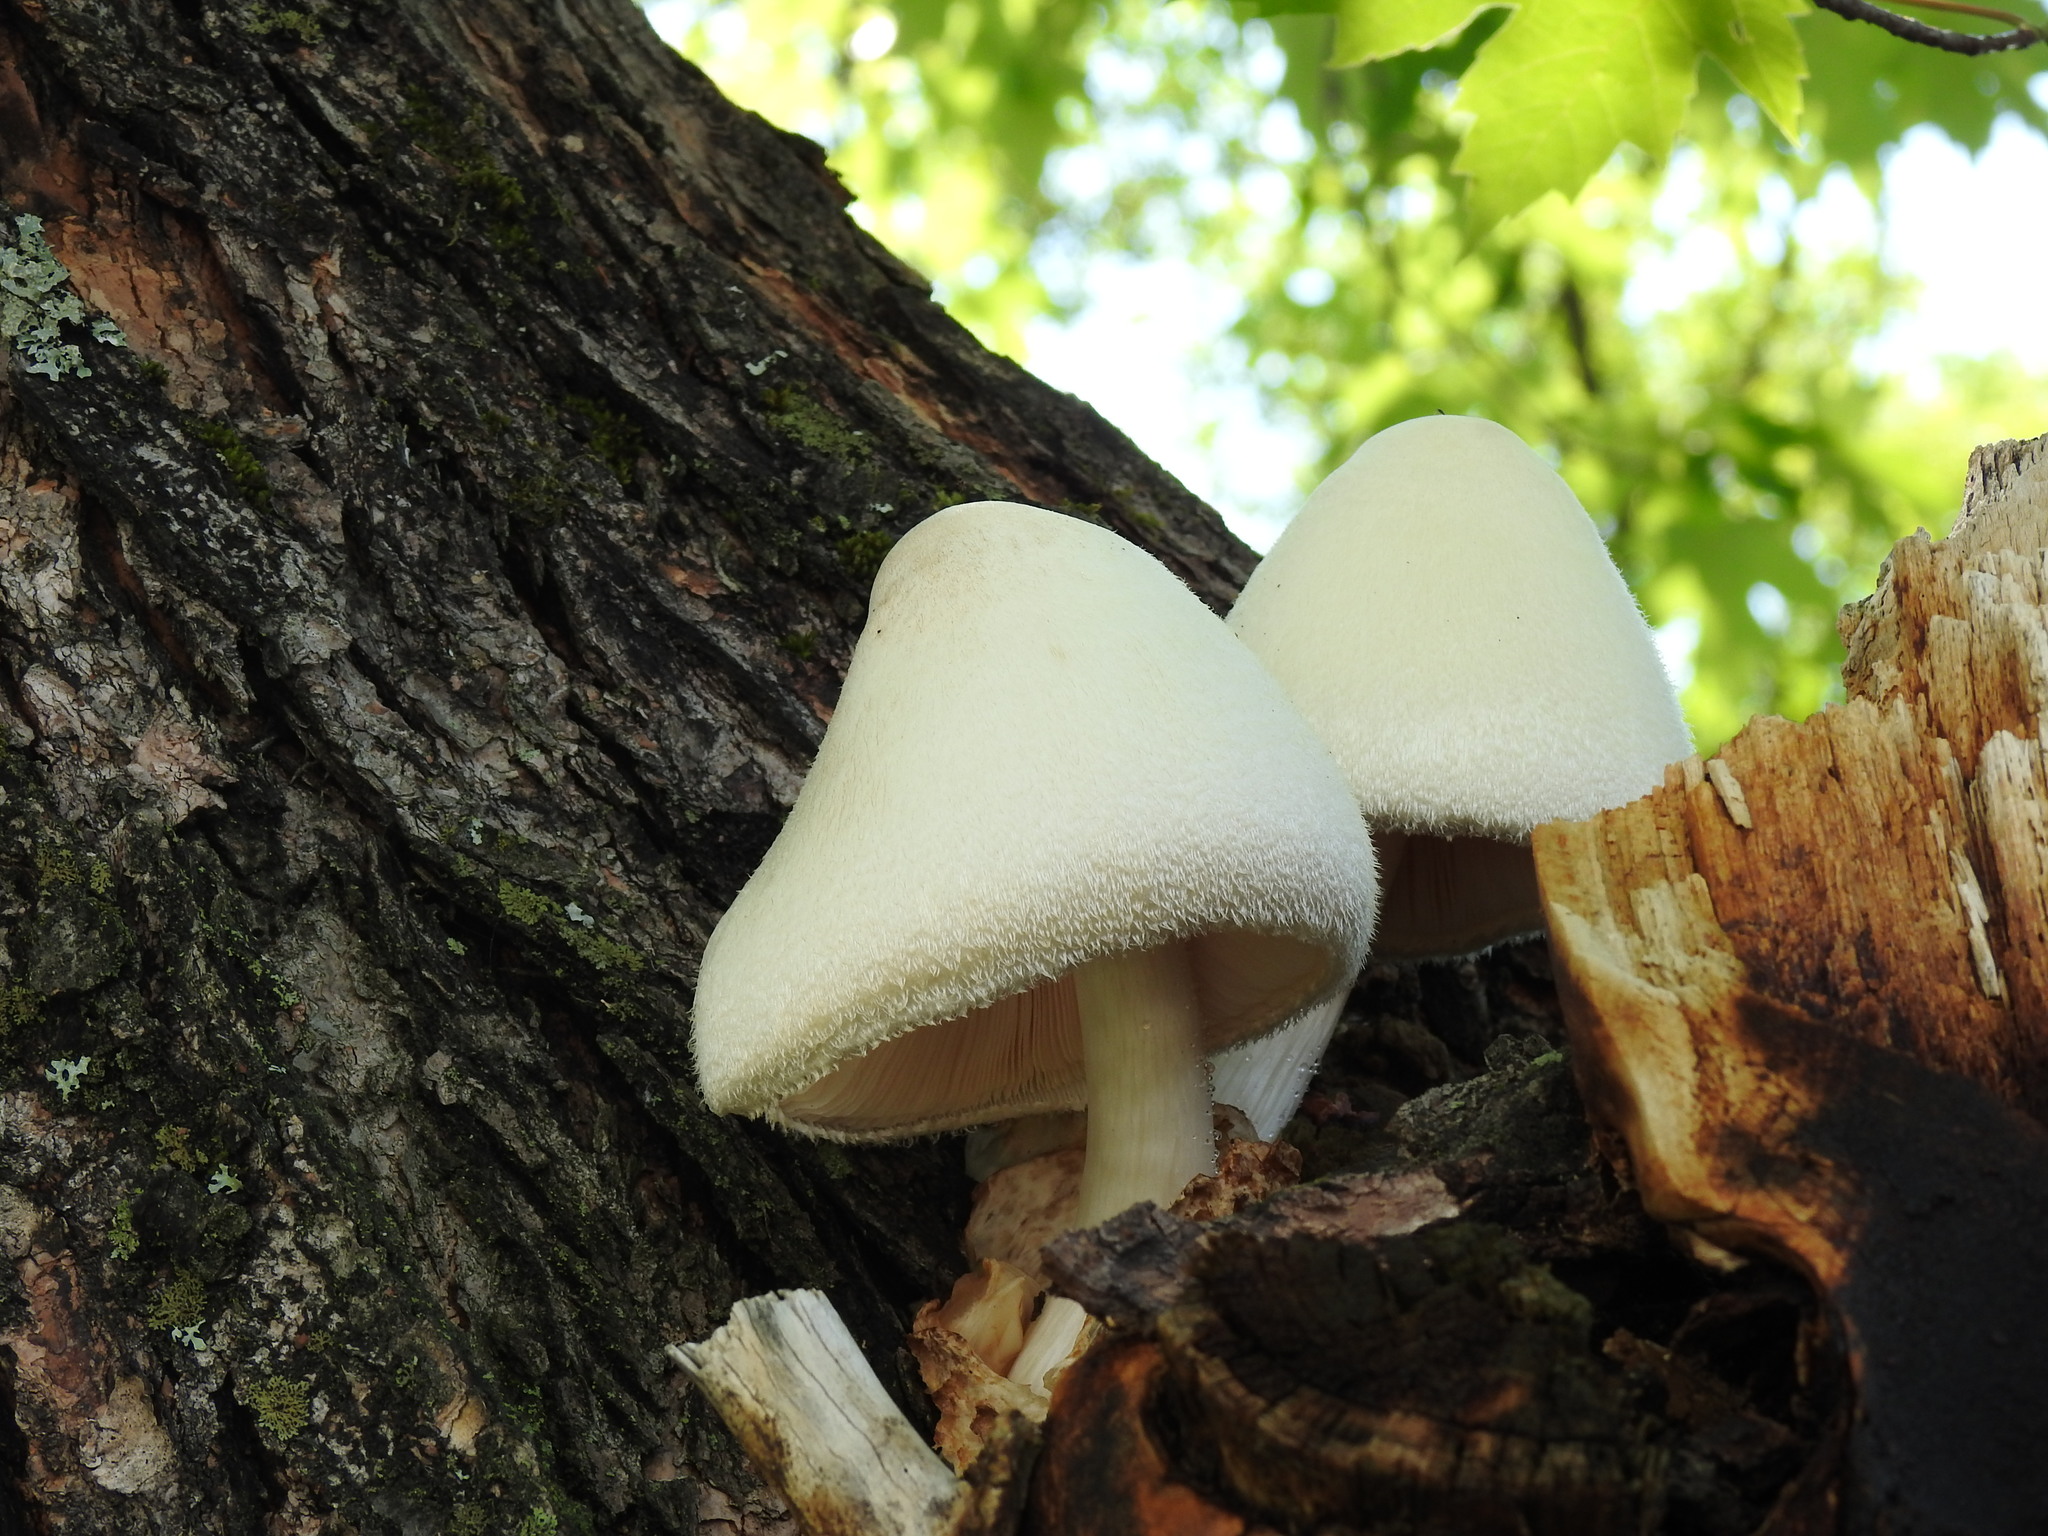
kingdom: Fungi
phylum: Basidiomycota
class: Agaricomycetes
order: Agaricales
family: Pluteaceae
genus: Volvariella
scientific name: Volvariella bombycina
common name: Silky rosegill
